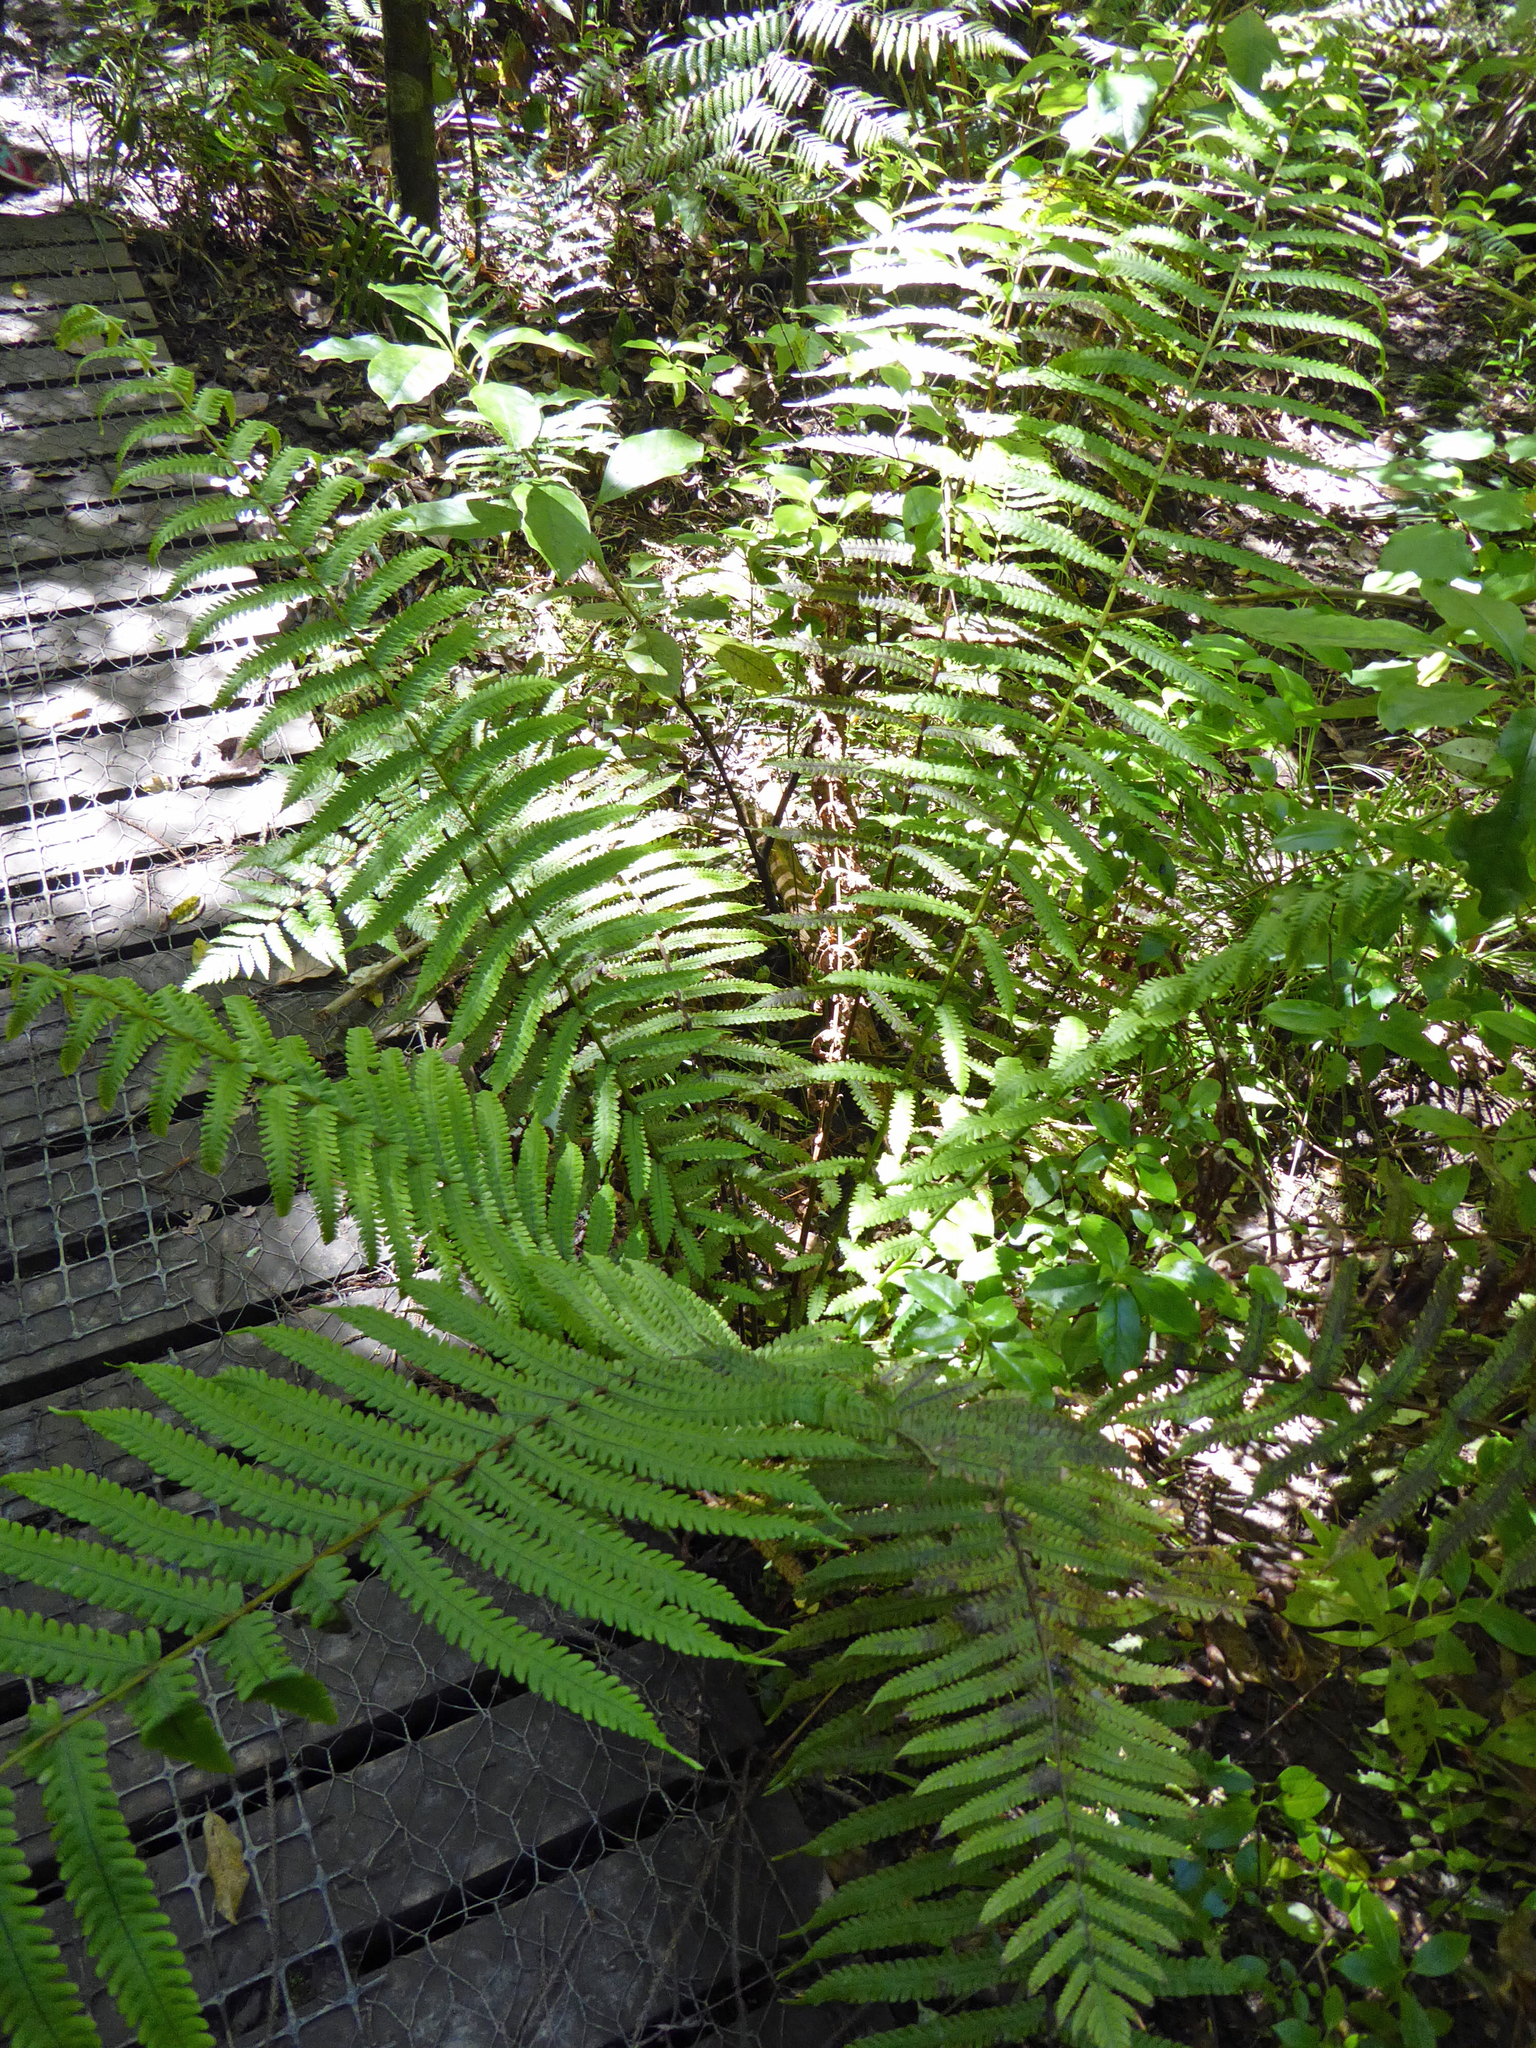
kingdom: Plantae
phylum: Tracheophyta
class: Polypodiopsida
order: Polypodiales
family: Thelypteridaceae
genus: Pakau
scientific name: Pakau pennigera
